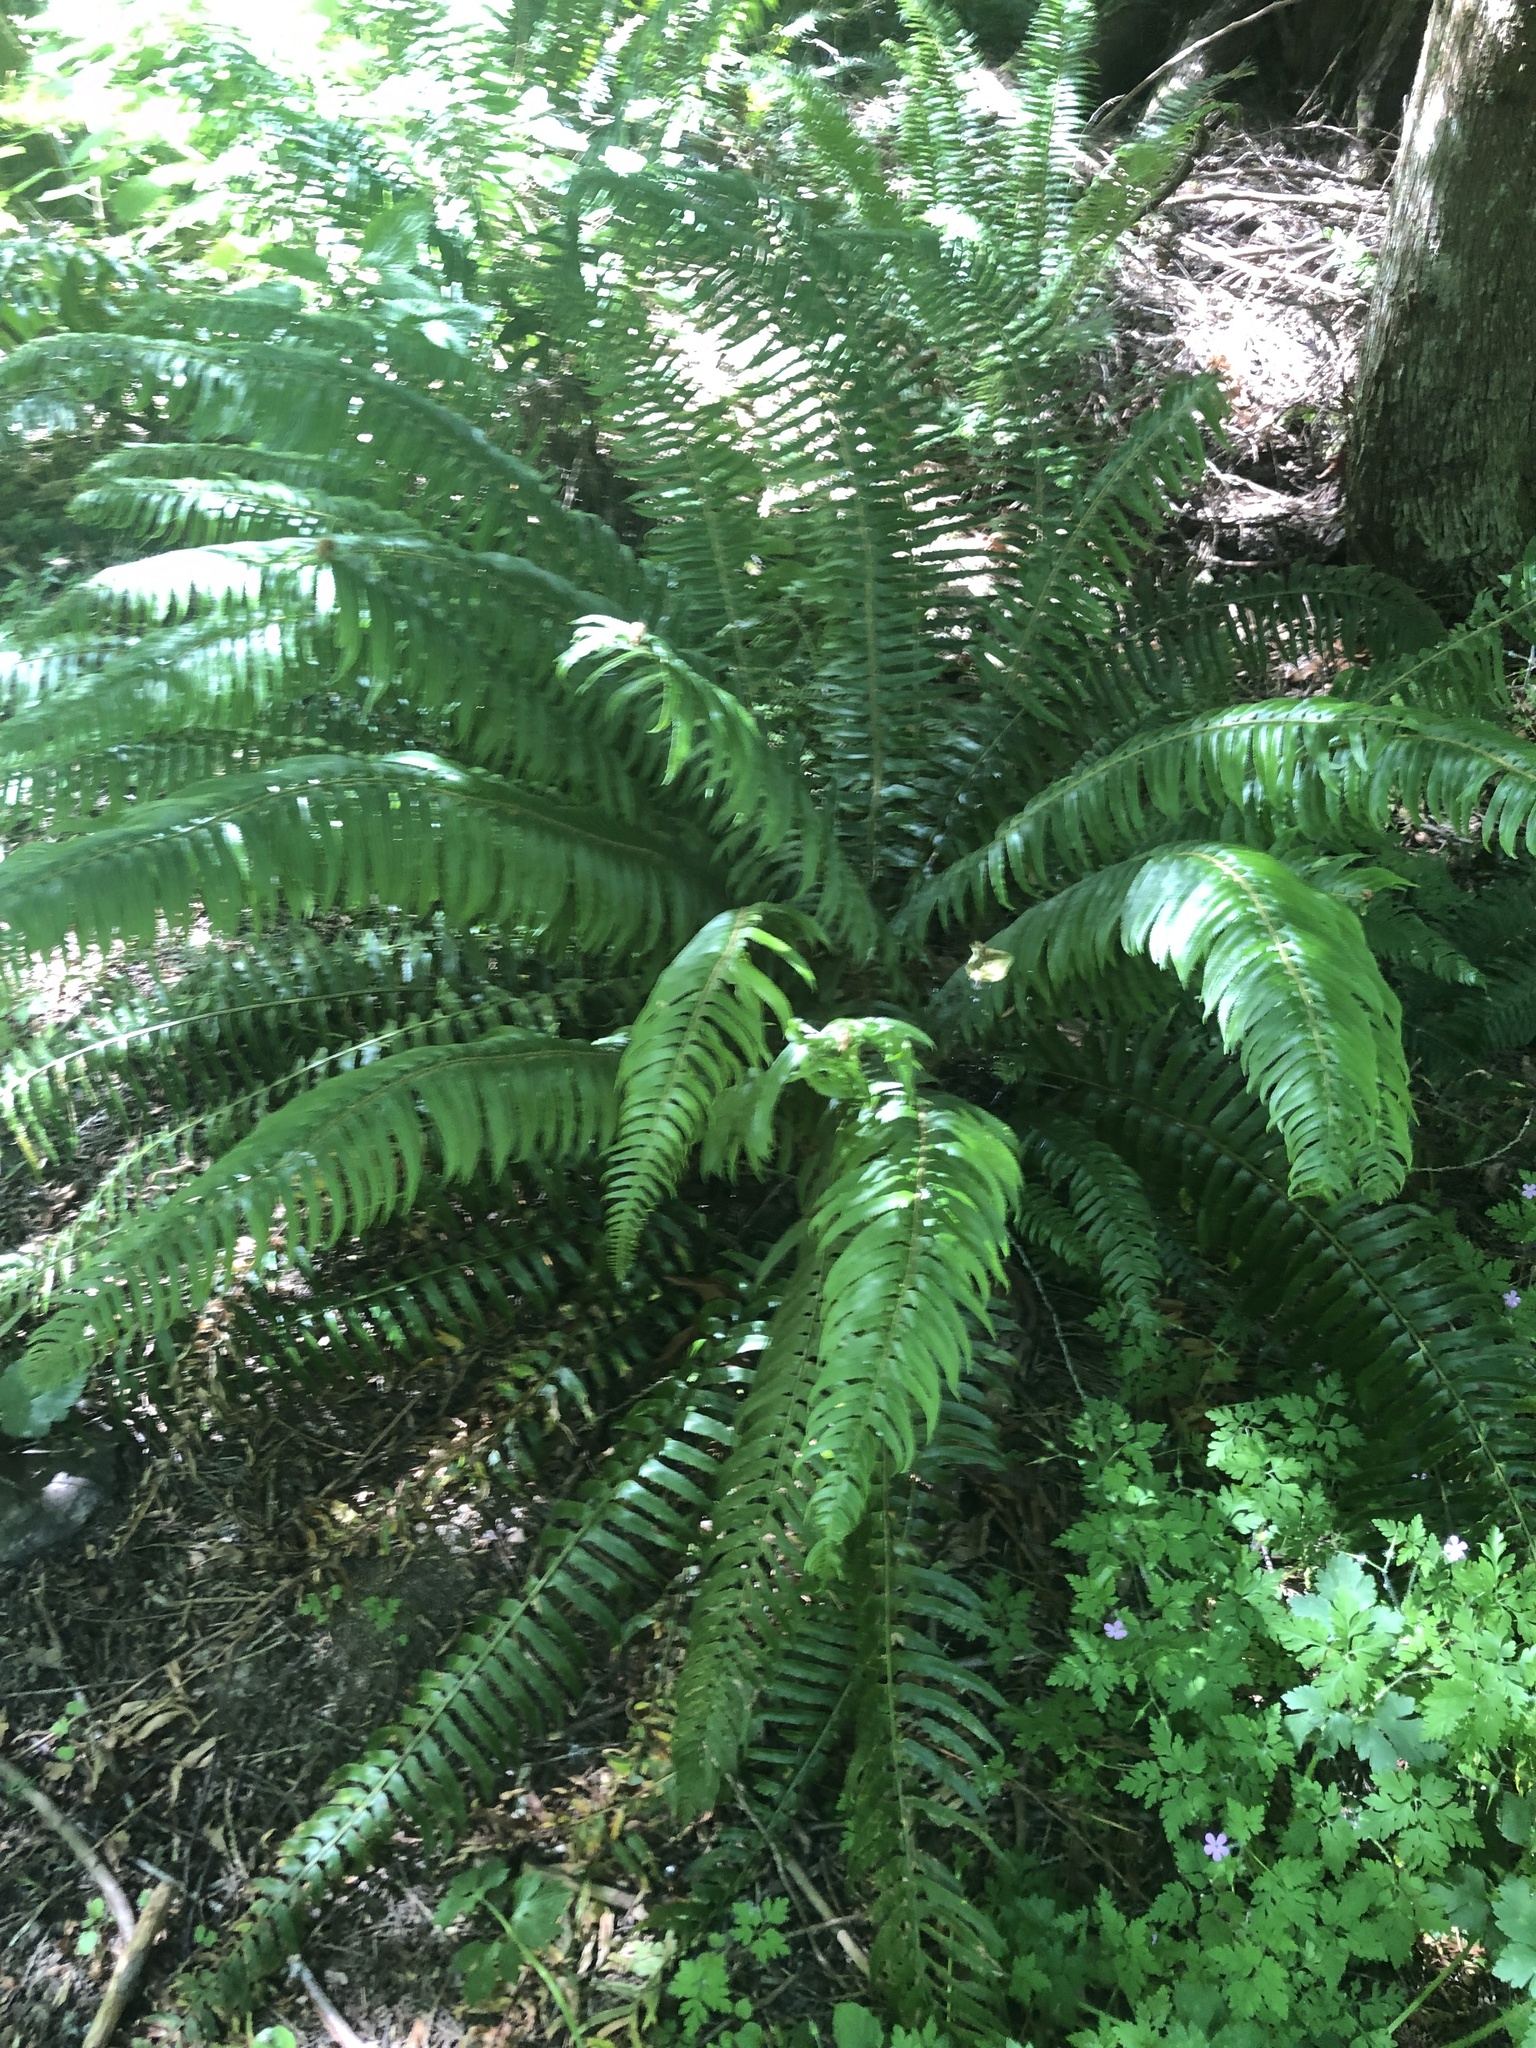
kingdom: Plantae
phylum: Tracheophyta
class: Polypodiopsida
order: Polypodiales
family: Dryopteridaceae
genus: Polystichum
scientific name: Polystichum munitum
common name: Western sword-fern
